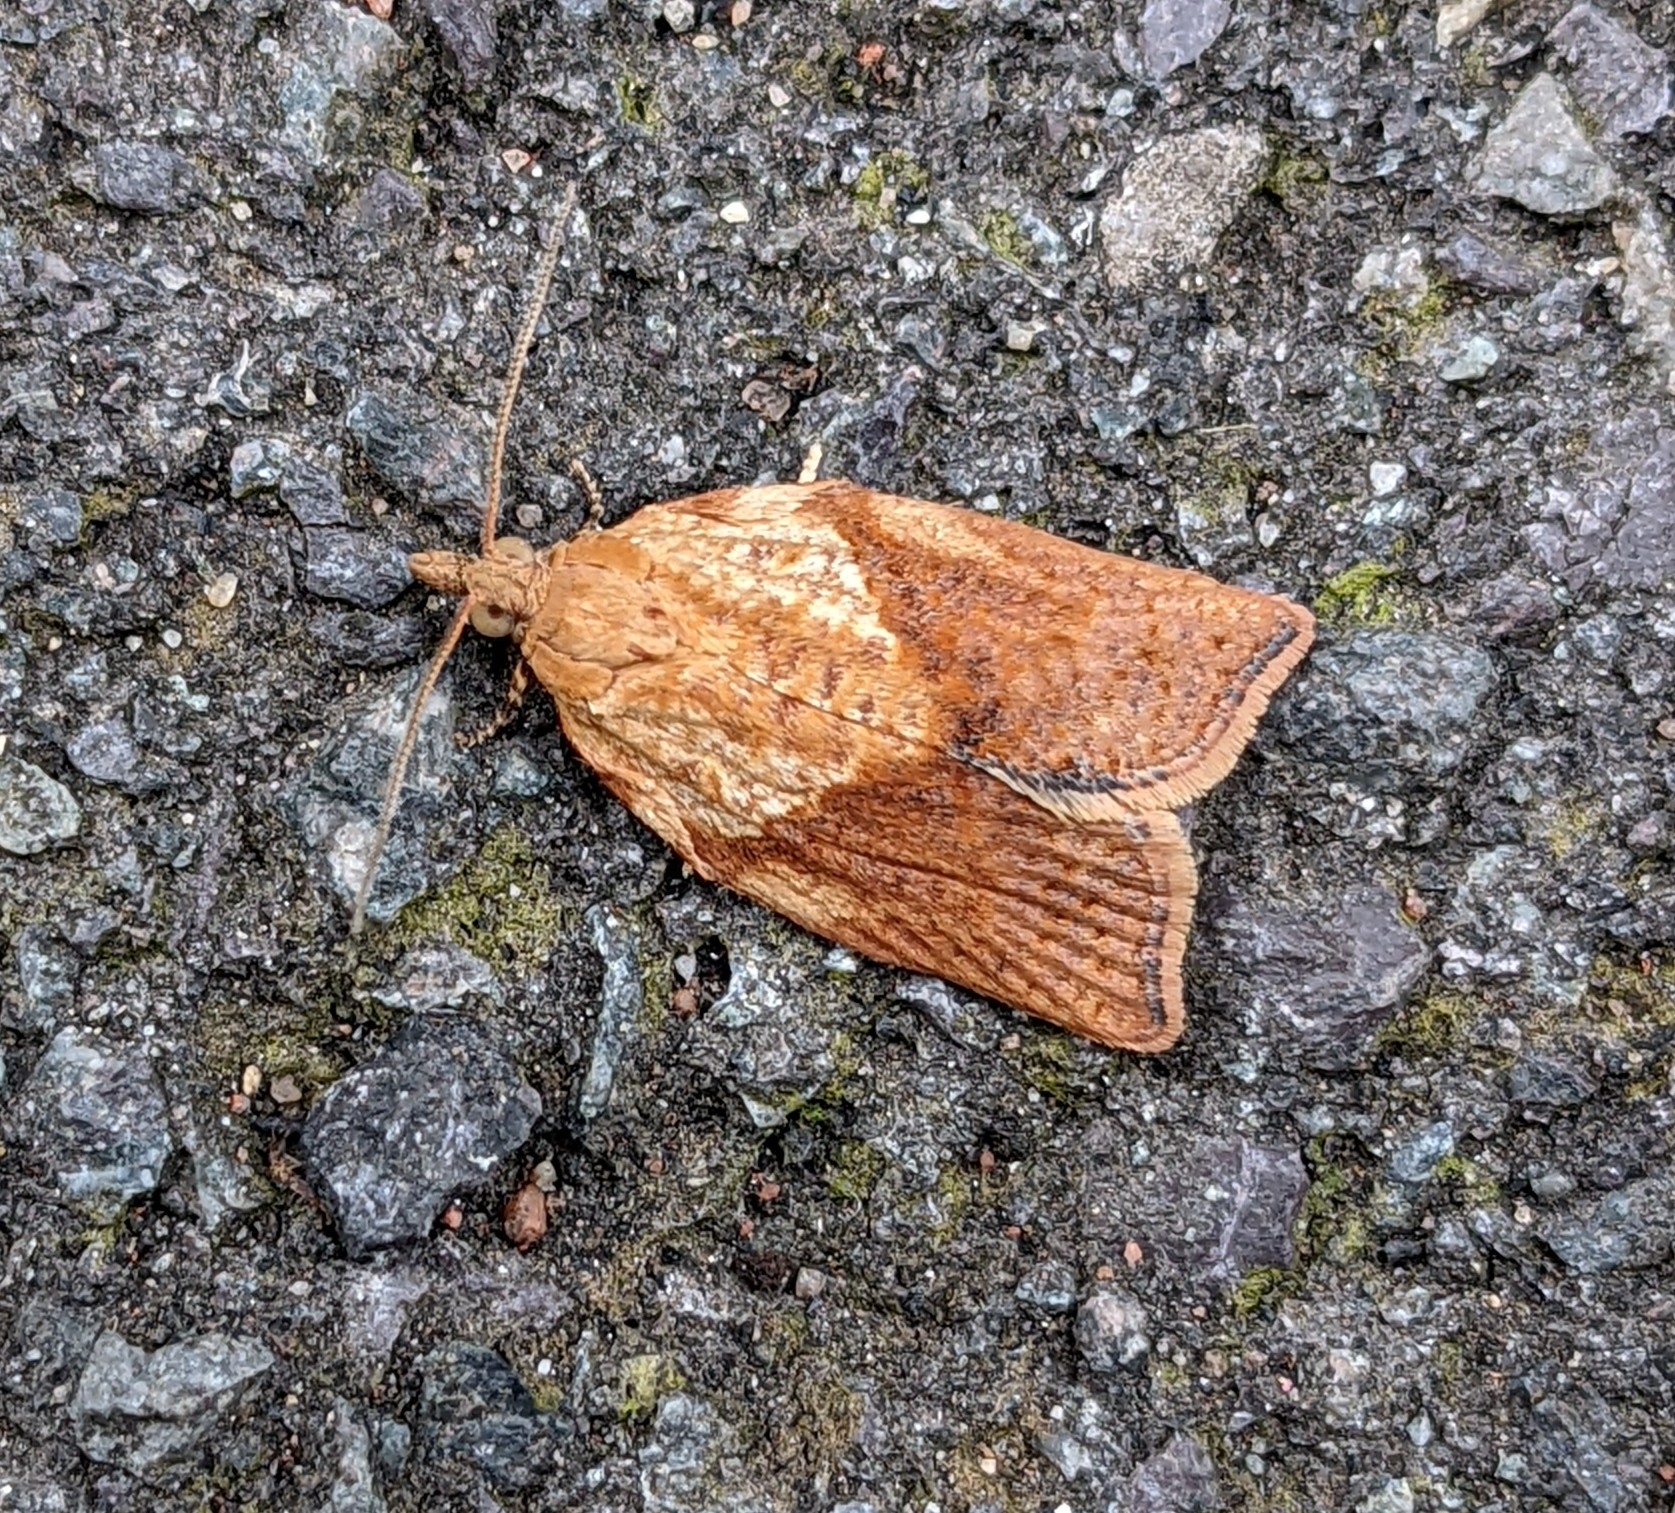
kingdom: Animalia
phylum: Arthropoda
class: Insecta
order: Lepidoptera
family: Tortricidae
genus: Epiphyas
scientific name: Epiphyas postvittana
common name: Light brown apple moth
